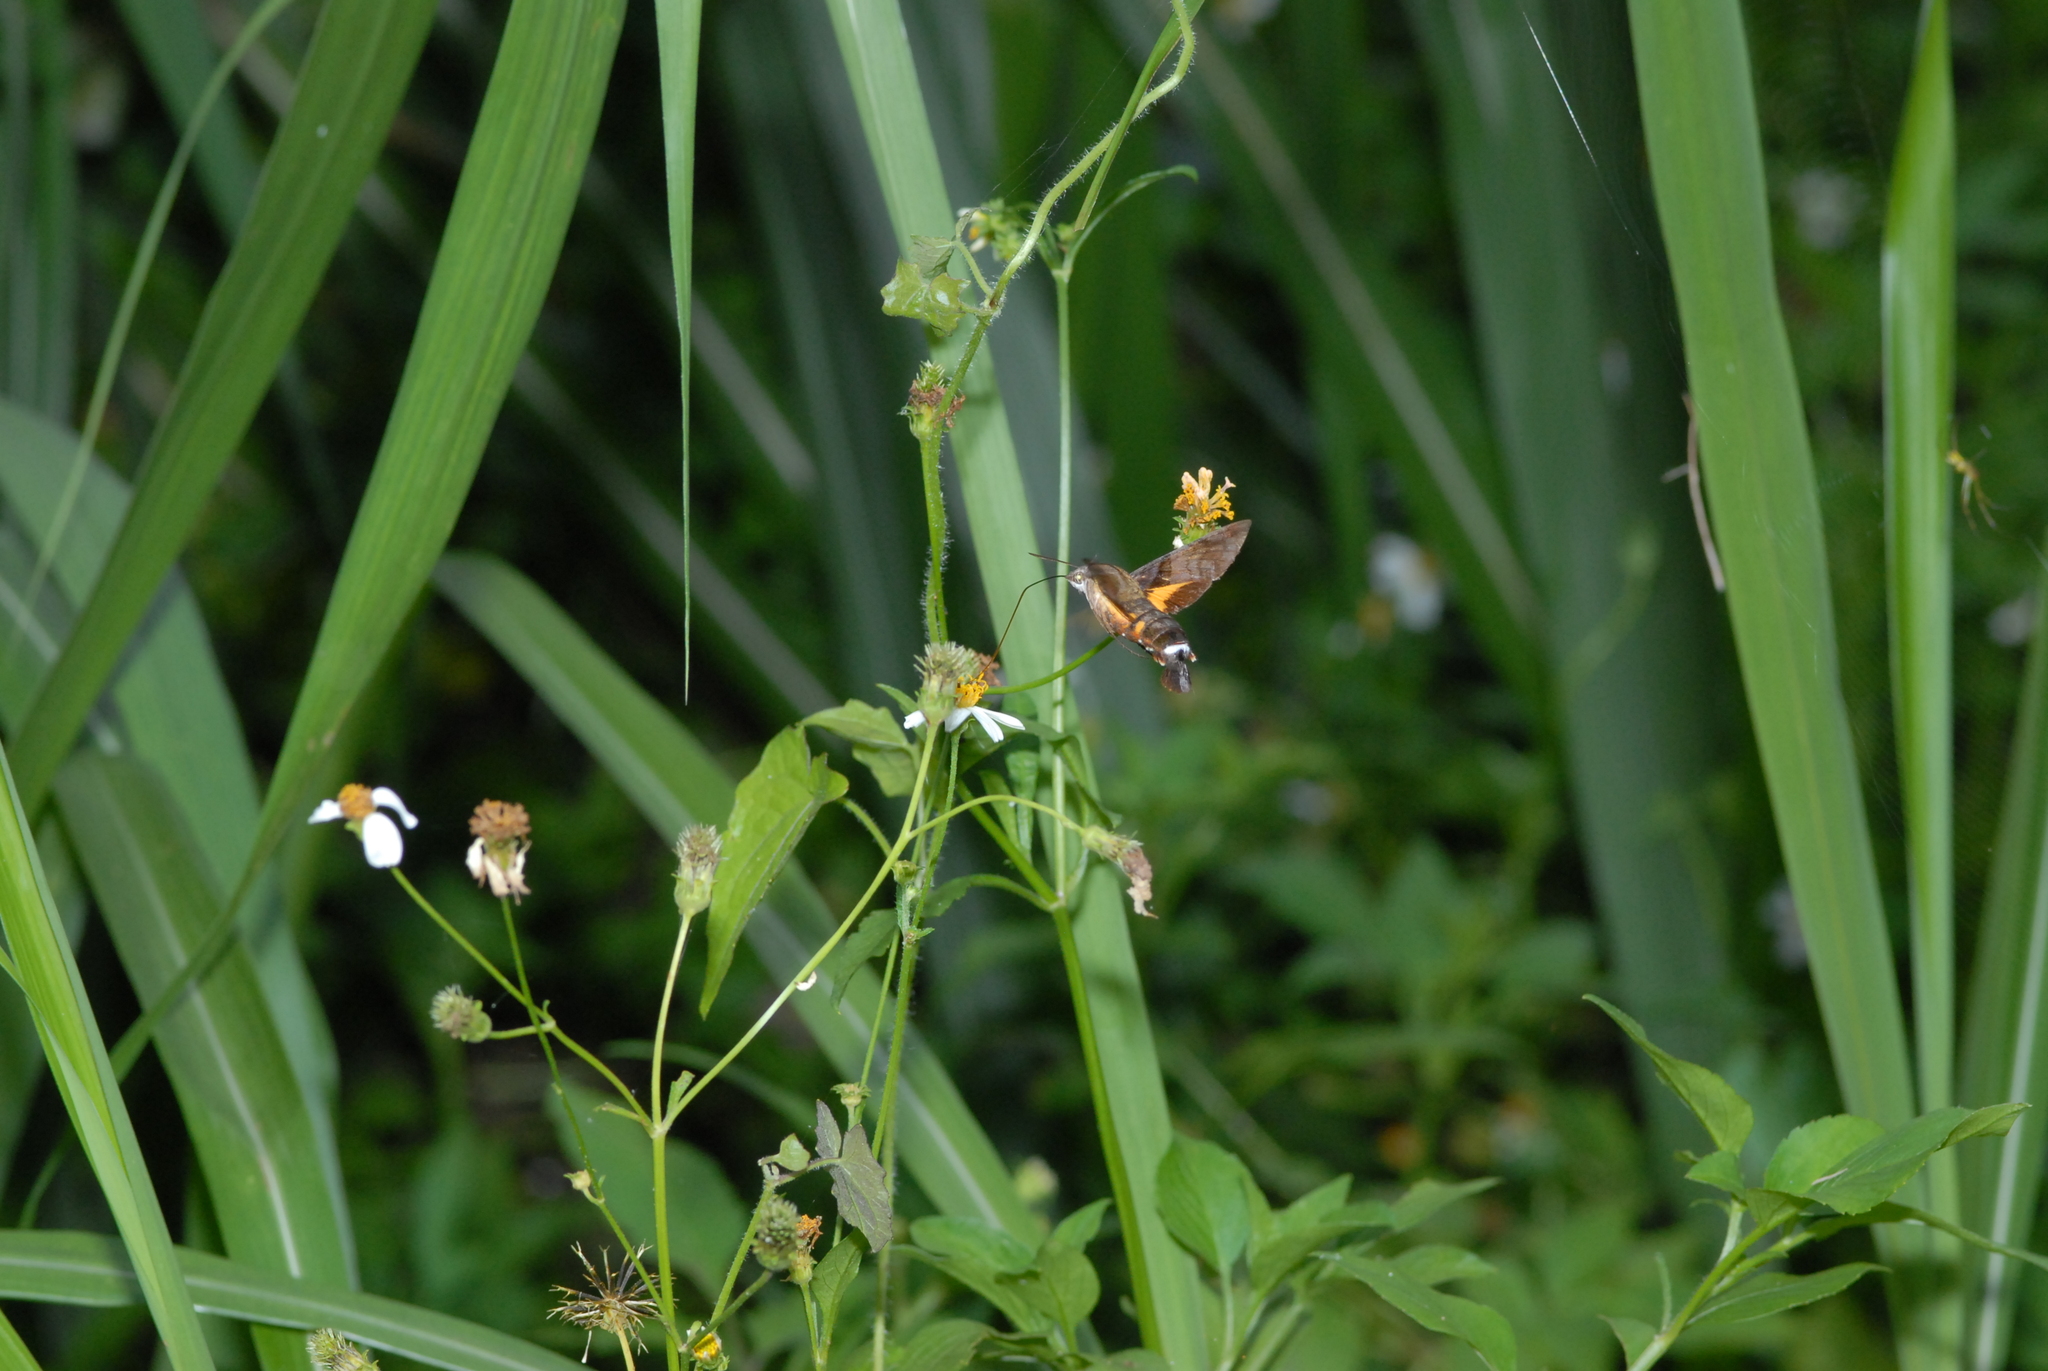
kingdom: Animalia
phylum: Arthropoda
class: Insecta
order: Lepidoptera
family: Sphingidae
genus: Macroglossum
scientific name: Macroglossum pyrrhosticta
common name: Hummingbird hawk moth
